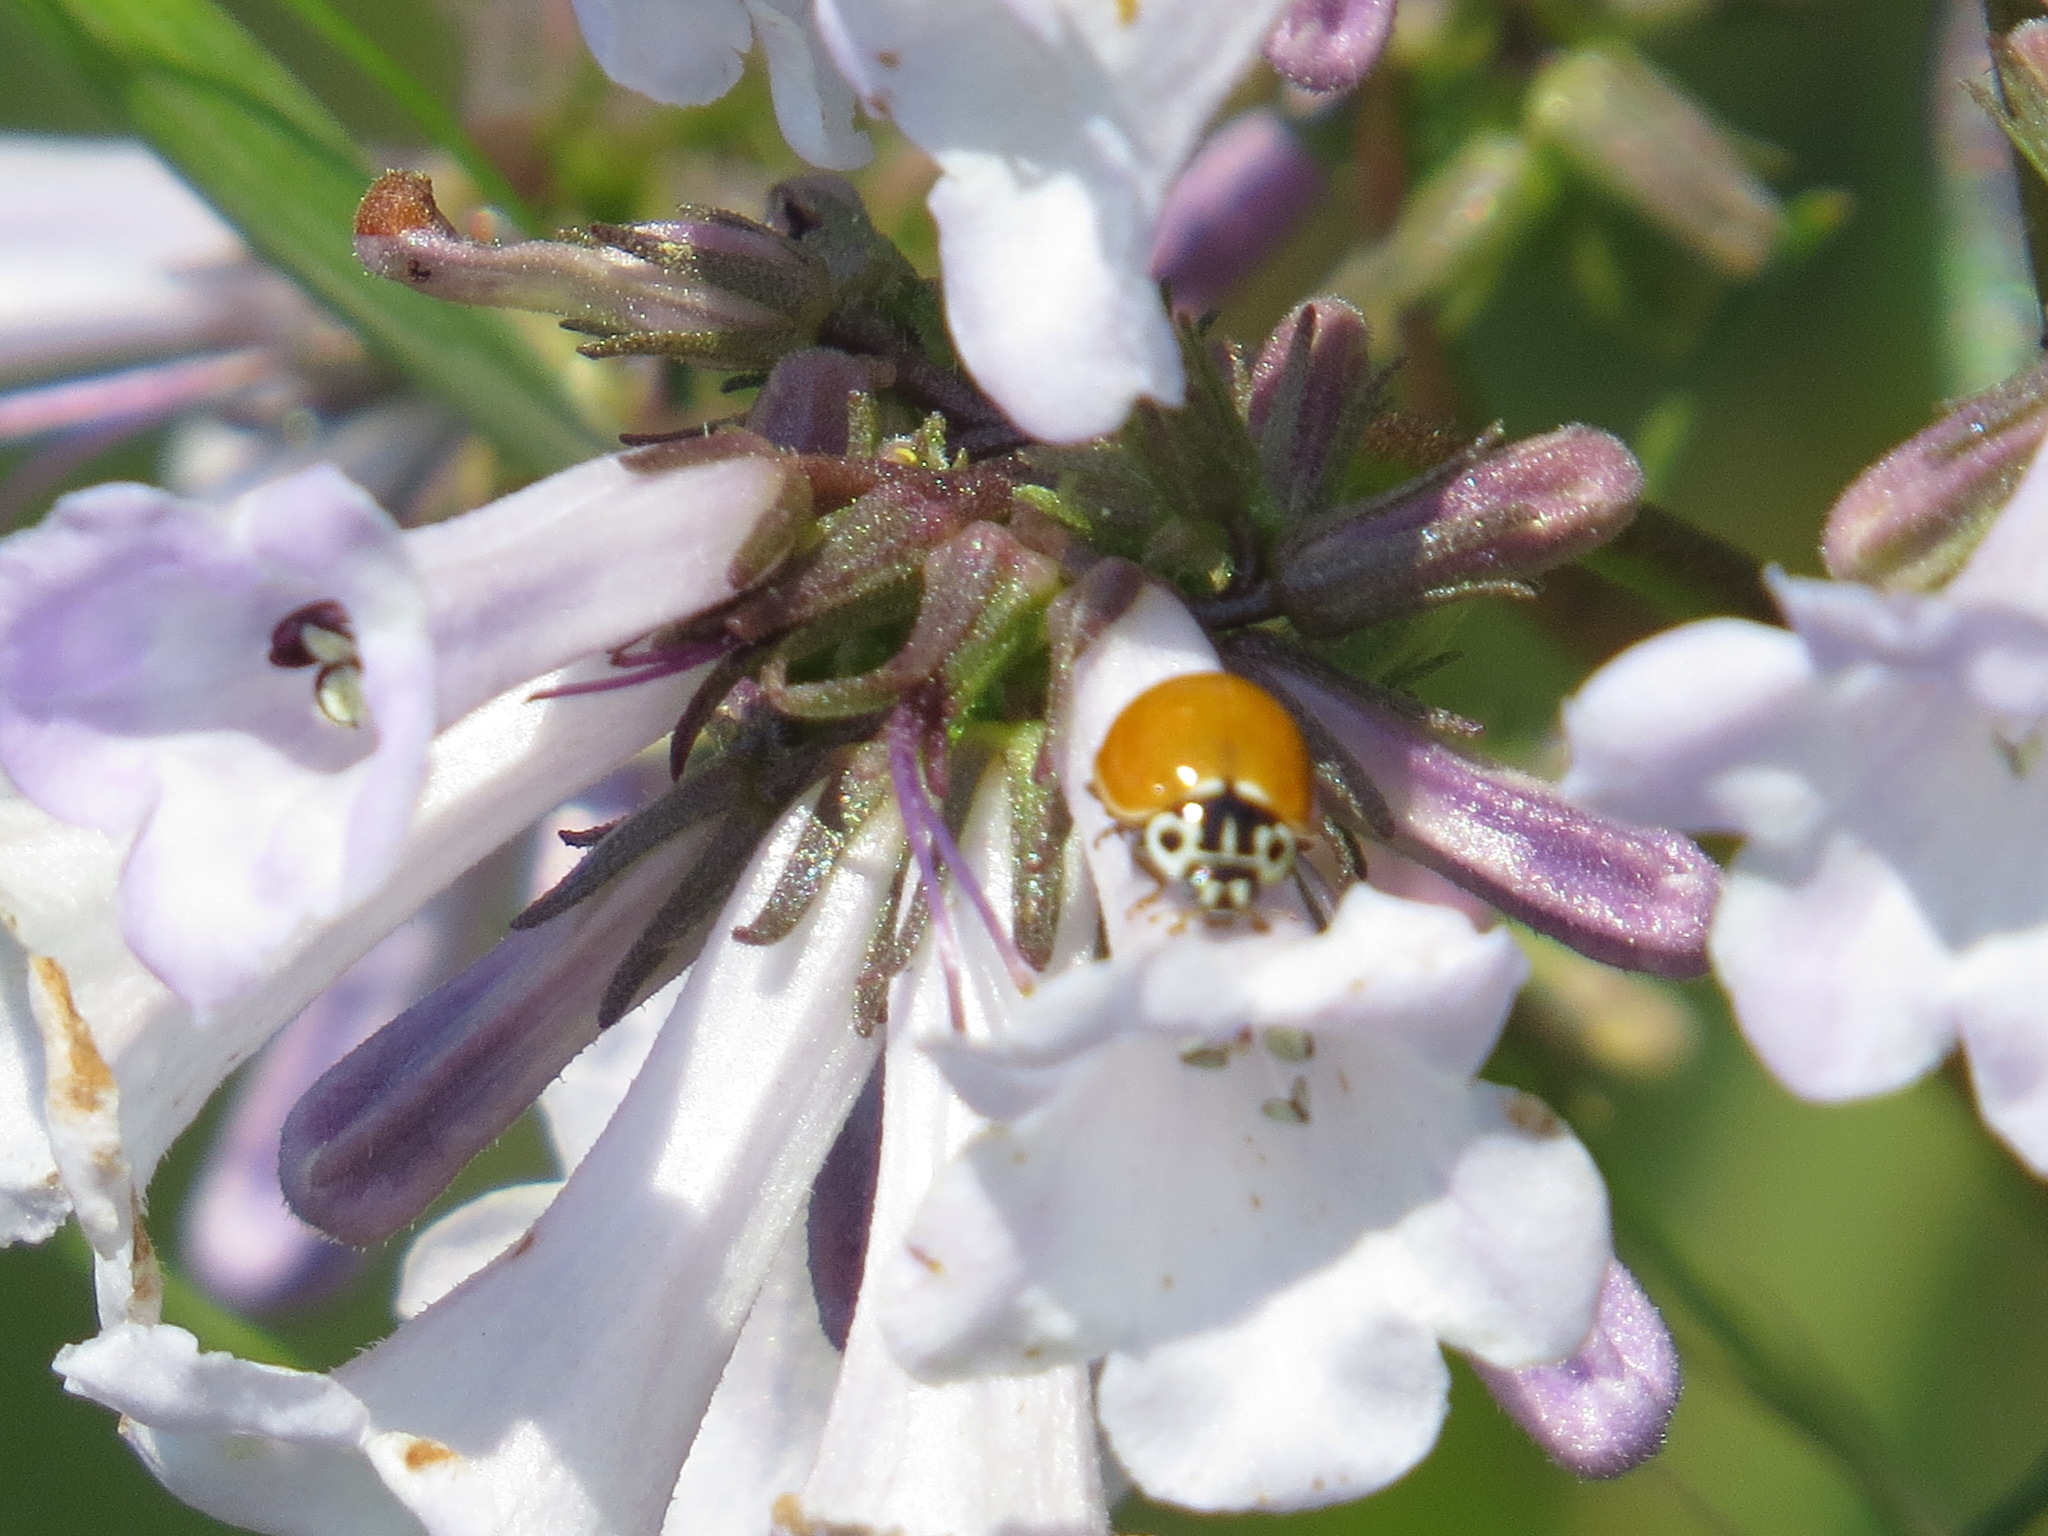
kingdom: Animalia
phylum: Arthropoda
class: Insecta
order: Coleoptera
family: Coccinellidae
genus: Cycloneda
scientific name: Cycloneda polita
